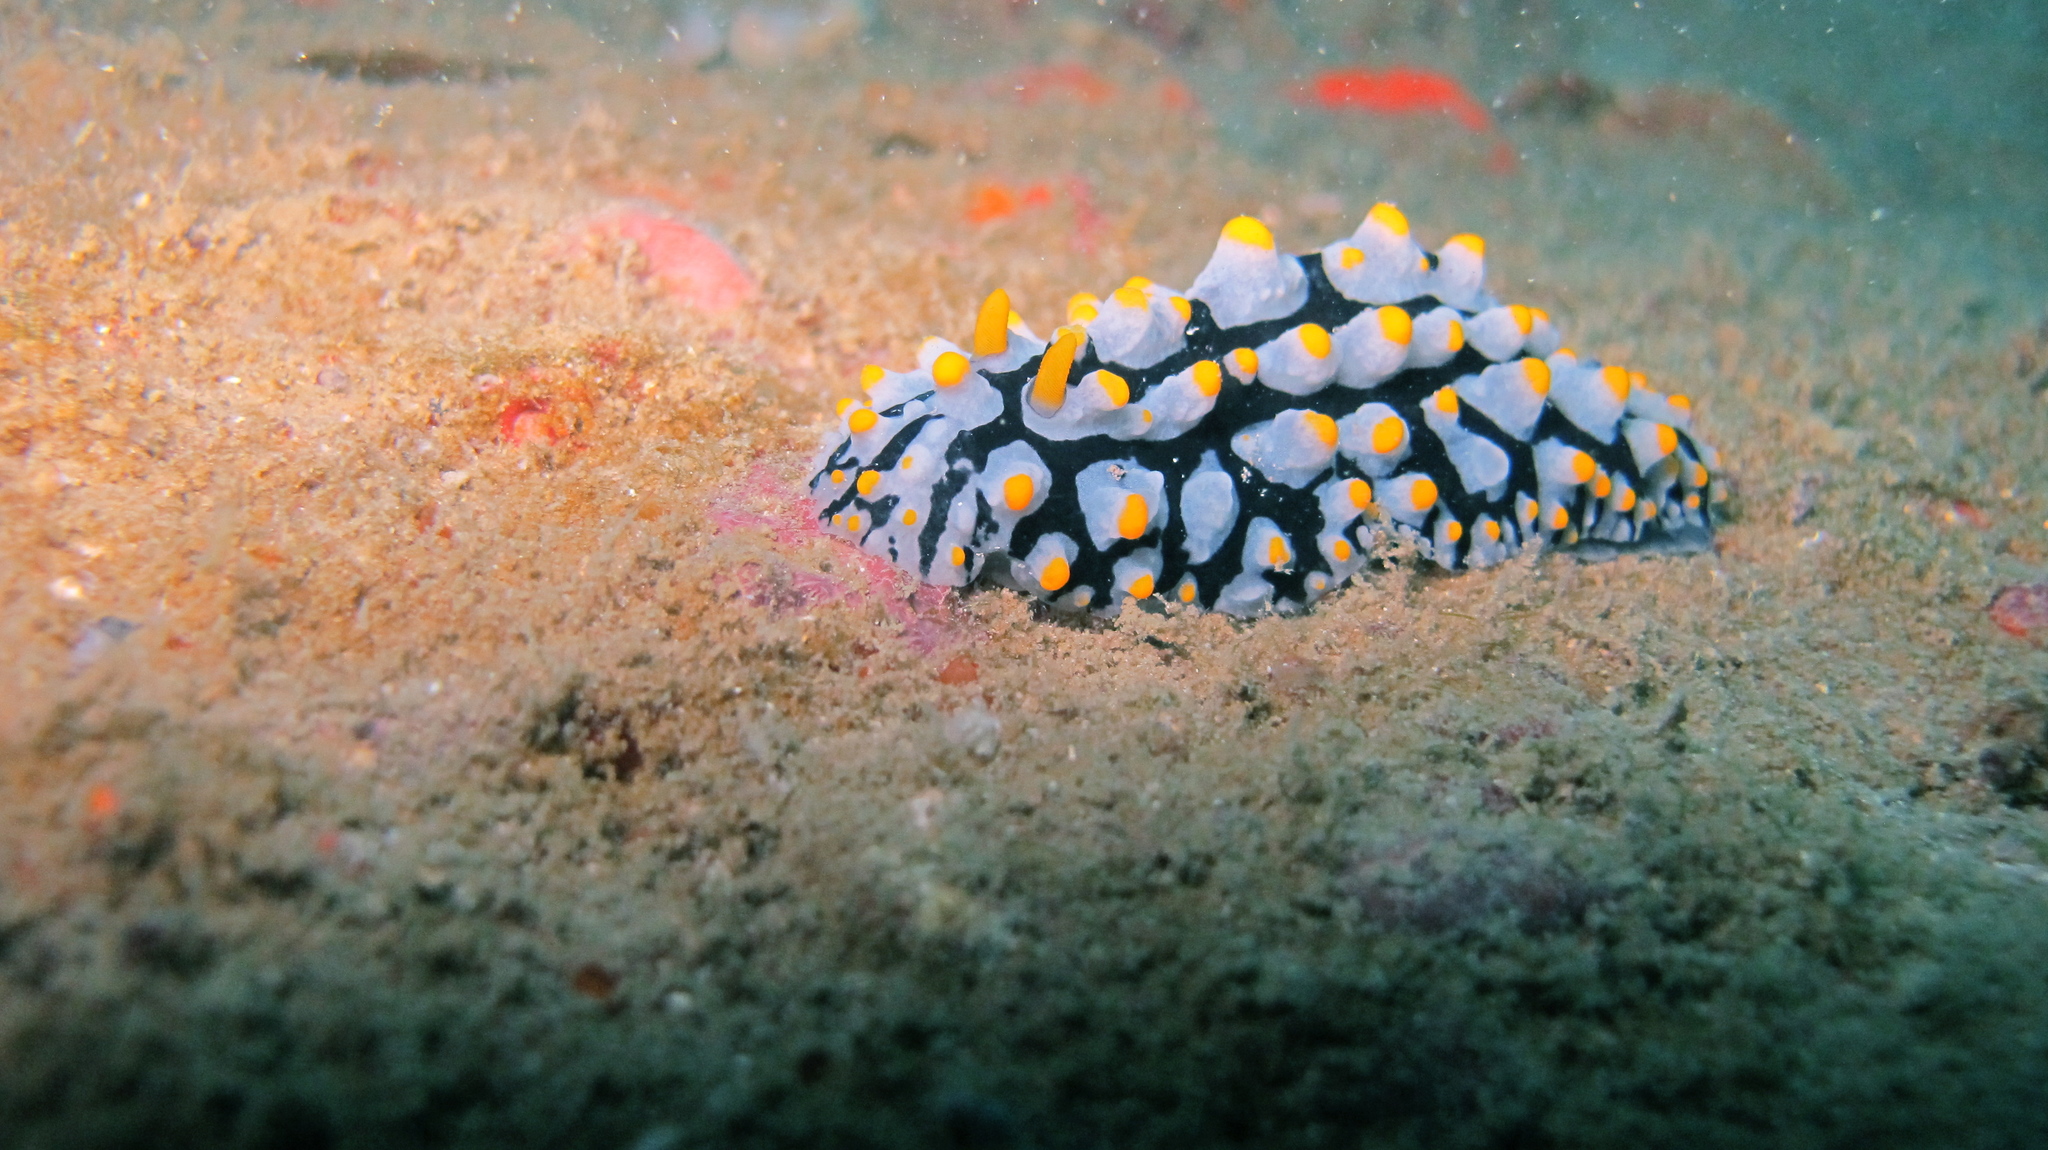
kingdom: Animalia
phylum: Mollusca
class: Gastropoda
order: Nudibranchia
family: Phyllidiidae
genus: Phyllidia
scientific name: Phyllidia varicosa
